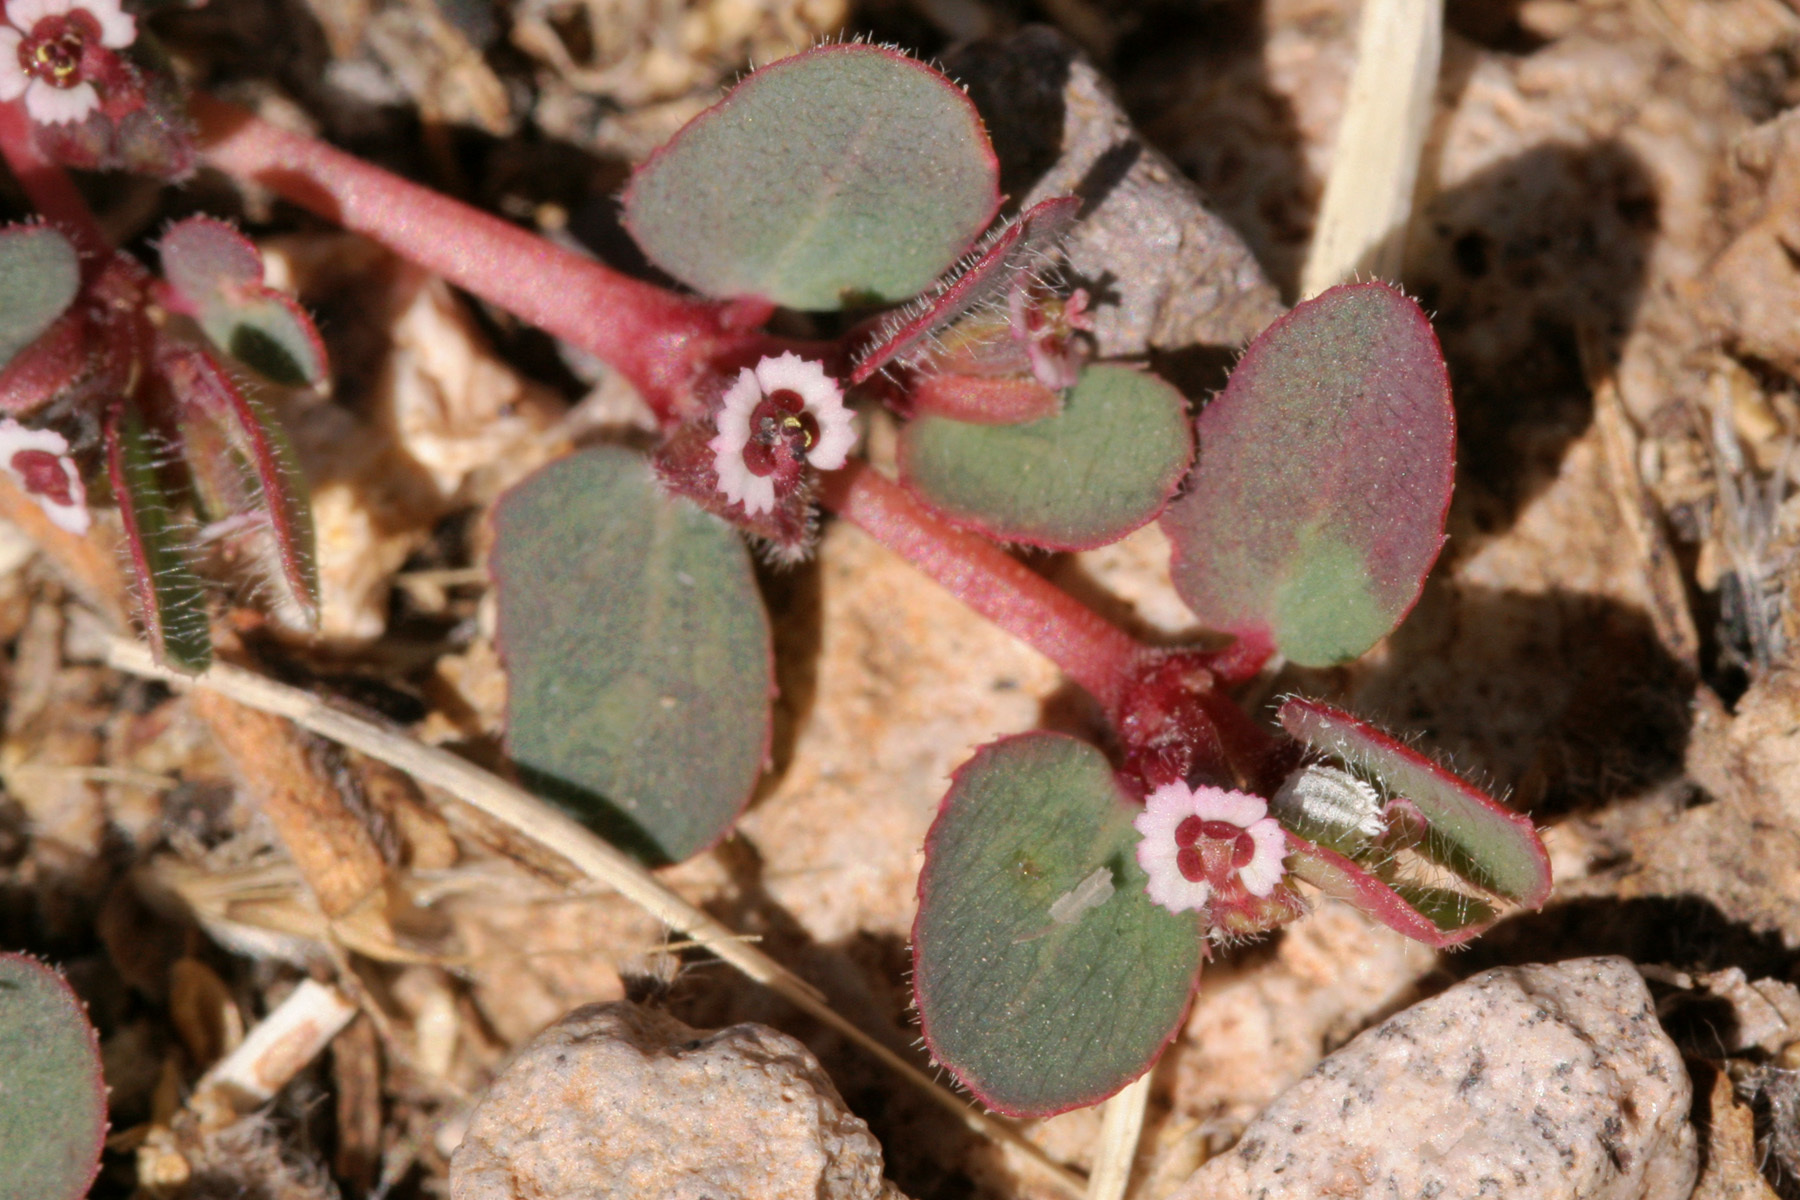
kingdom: Plantae
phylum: Tracheophyta
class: Magnoliopsida
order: Malpighiales
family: Euphorbiaceae
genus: Euphorbia
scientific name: Euphorbia velleriflora
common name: Caliche sandmat
